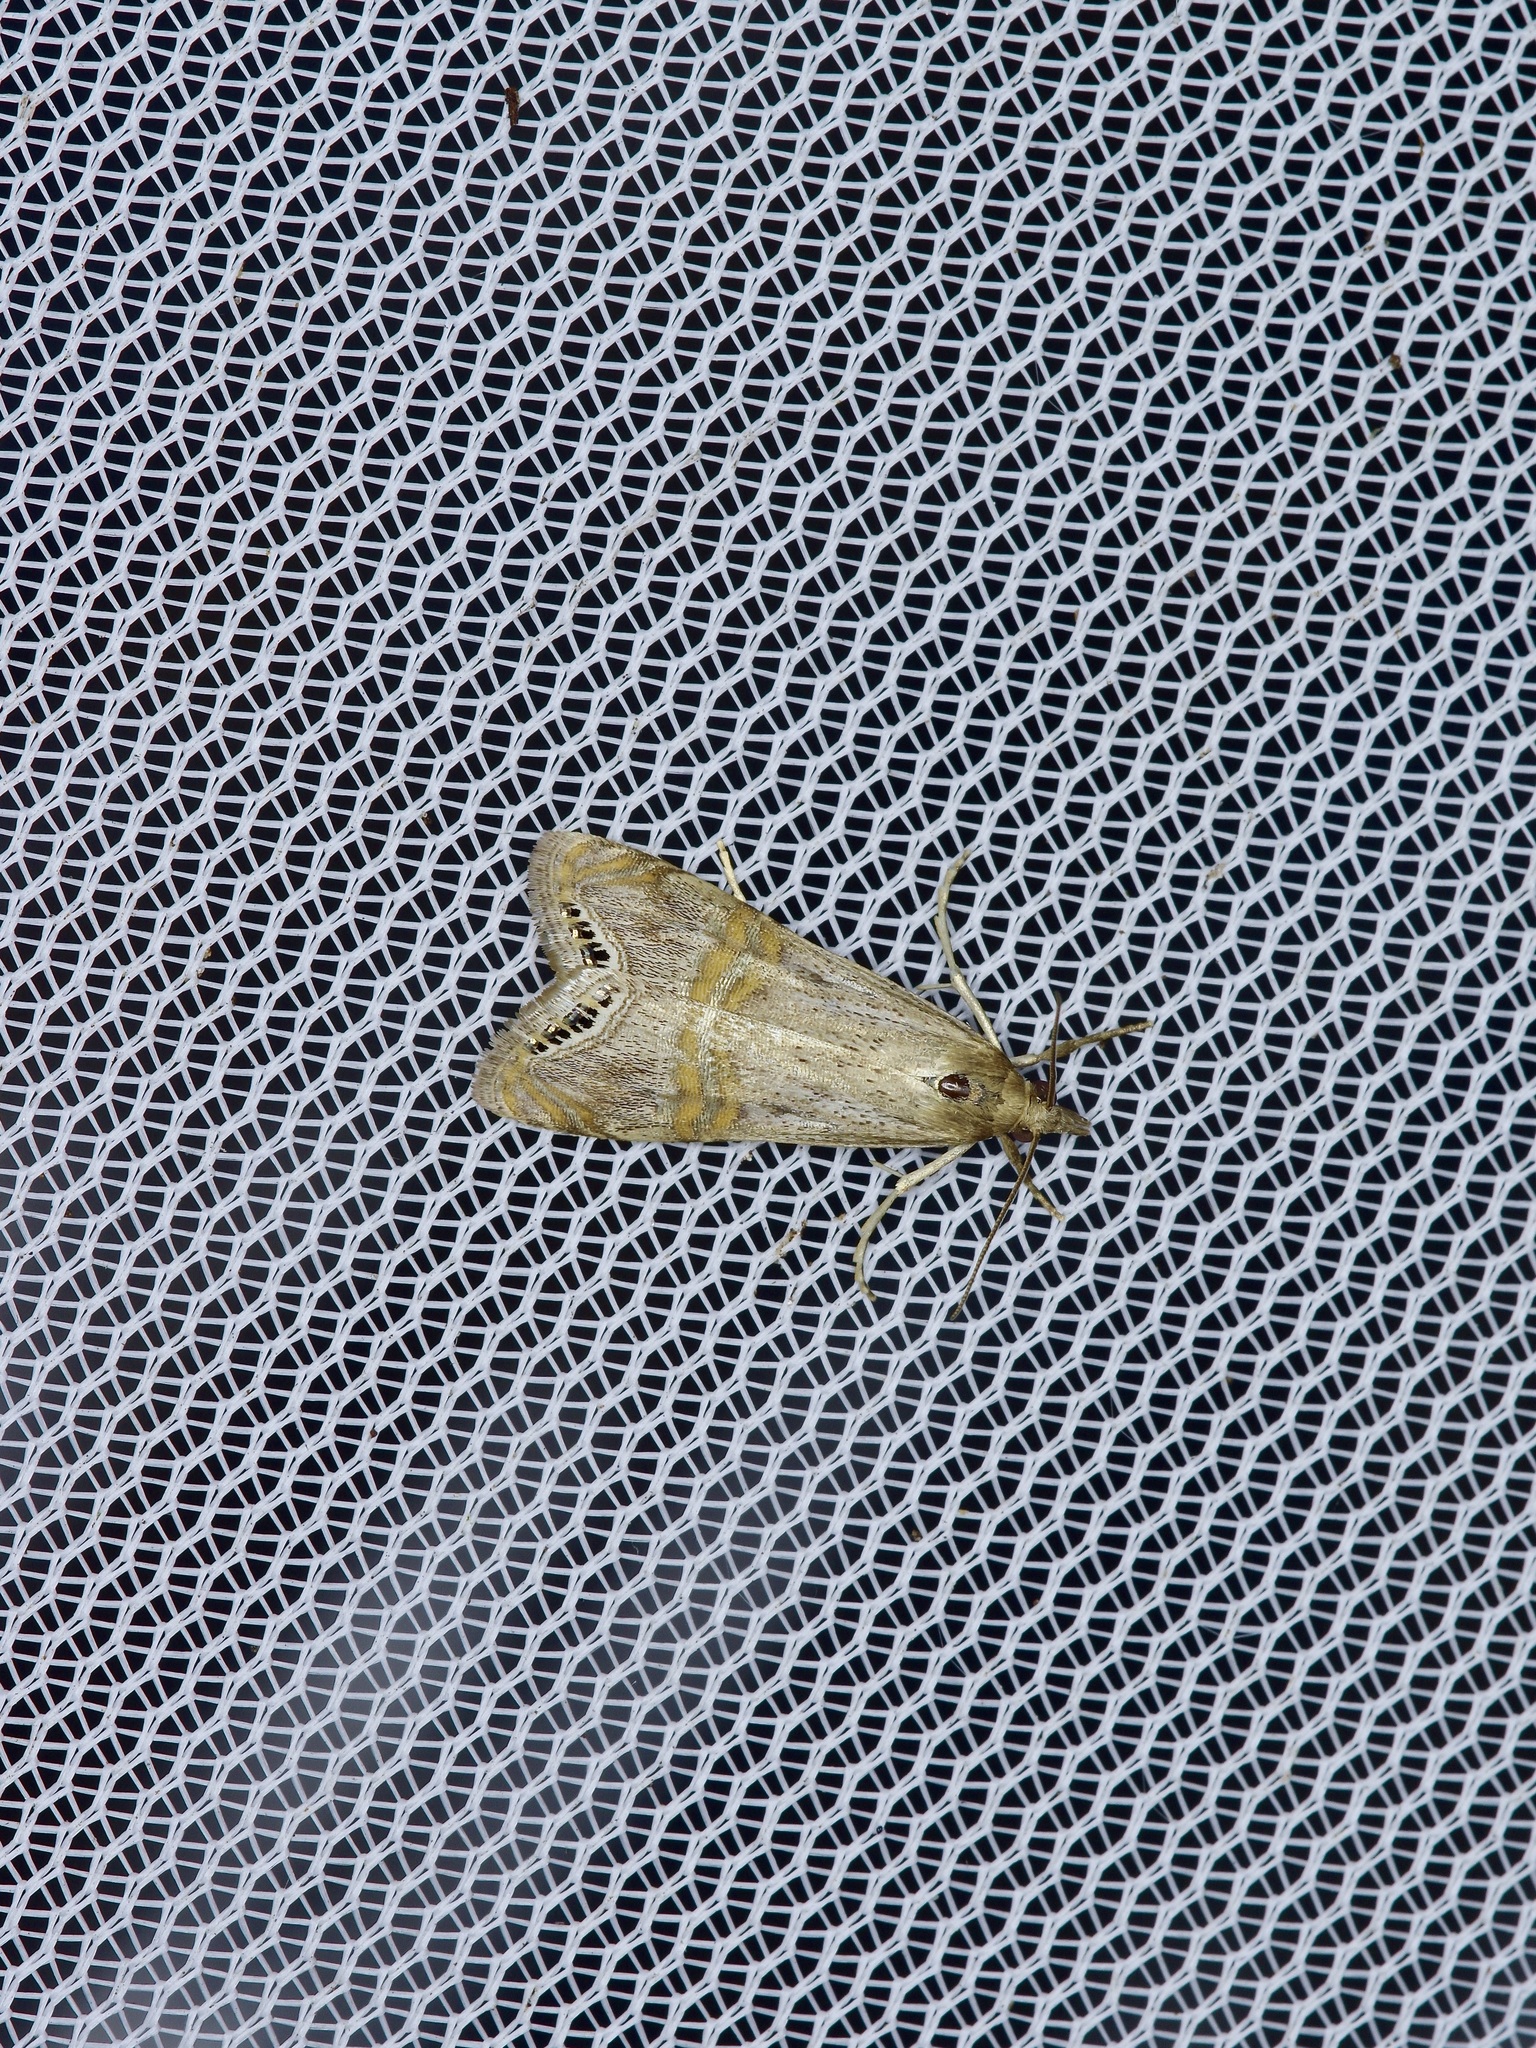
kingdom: Animalia
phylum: Arthropoda
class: Insecta
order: Lepidoptera
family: Crambidae
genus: Euchromius
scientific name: Euchromius ocellea
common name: Necklace veneer moth
